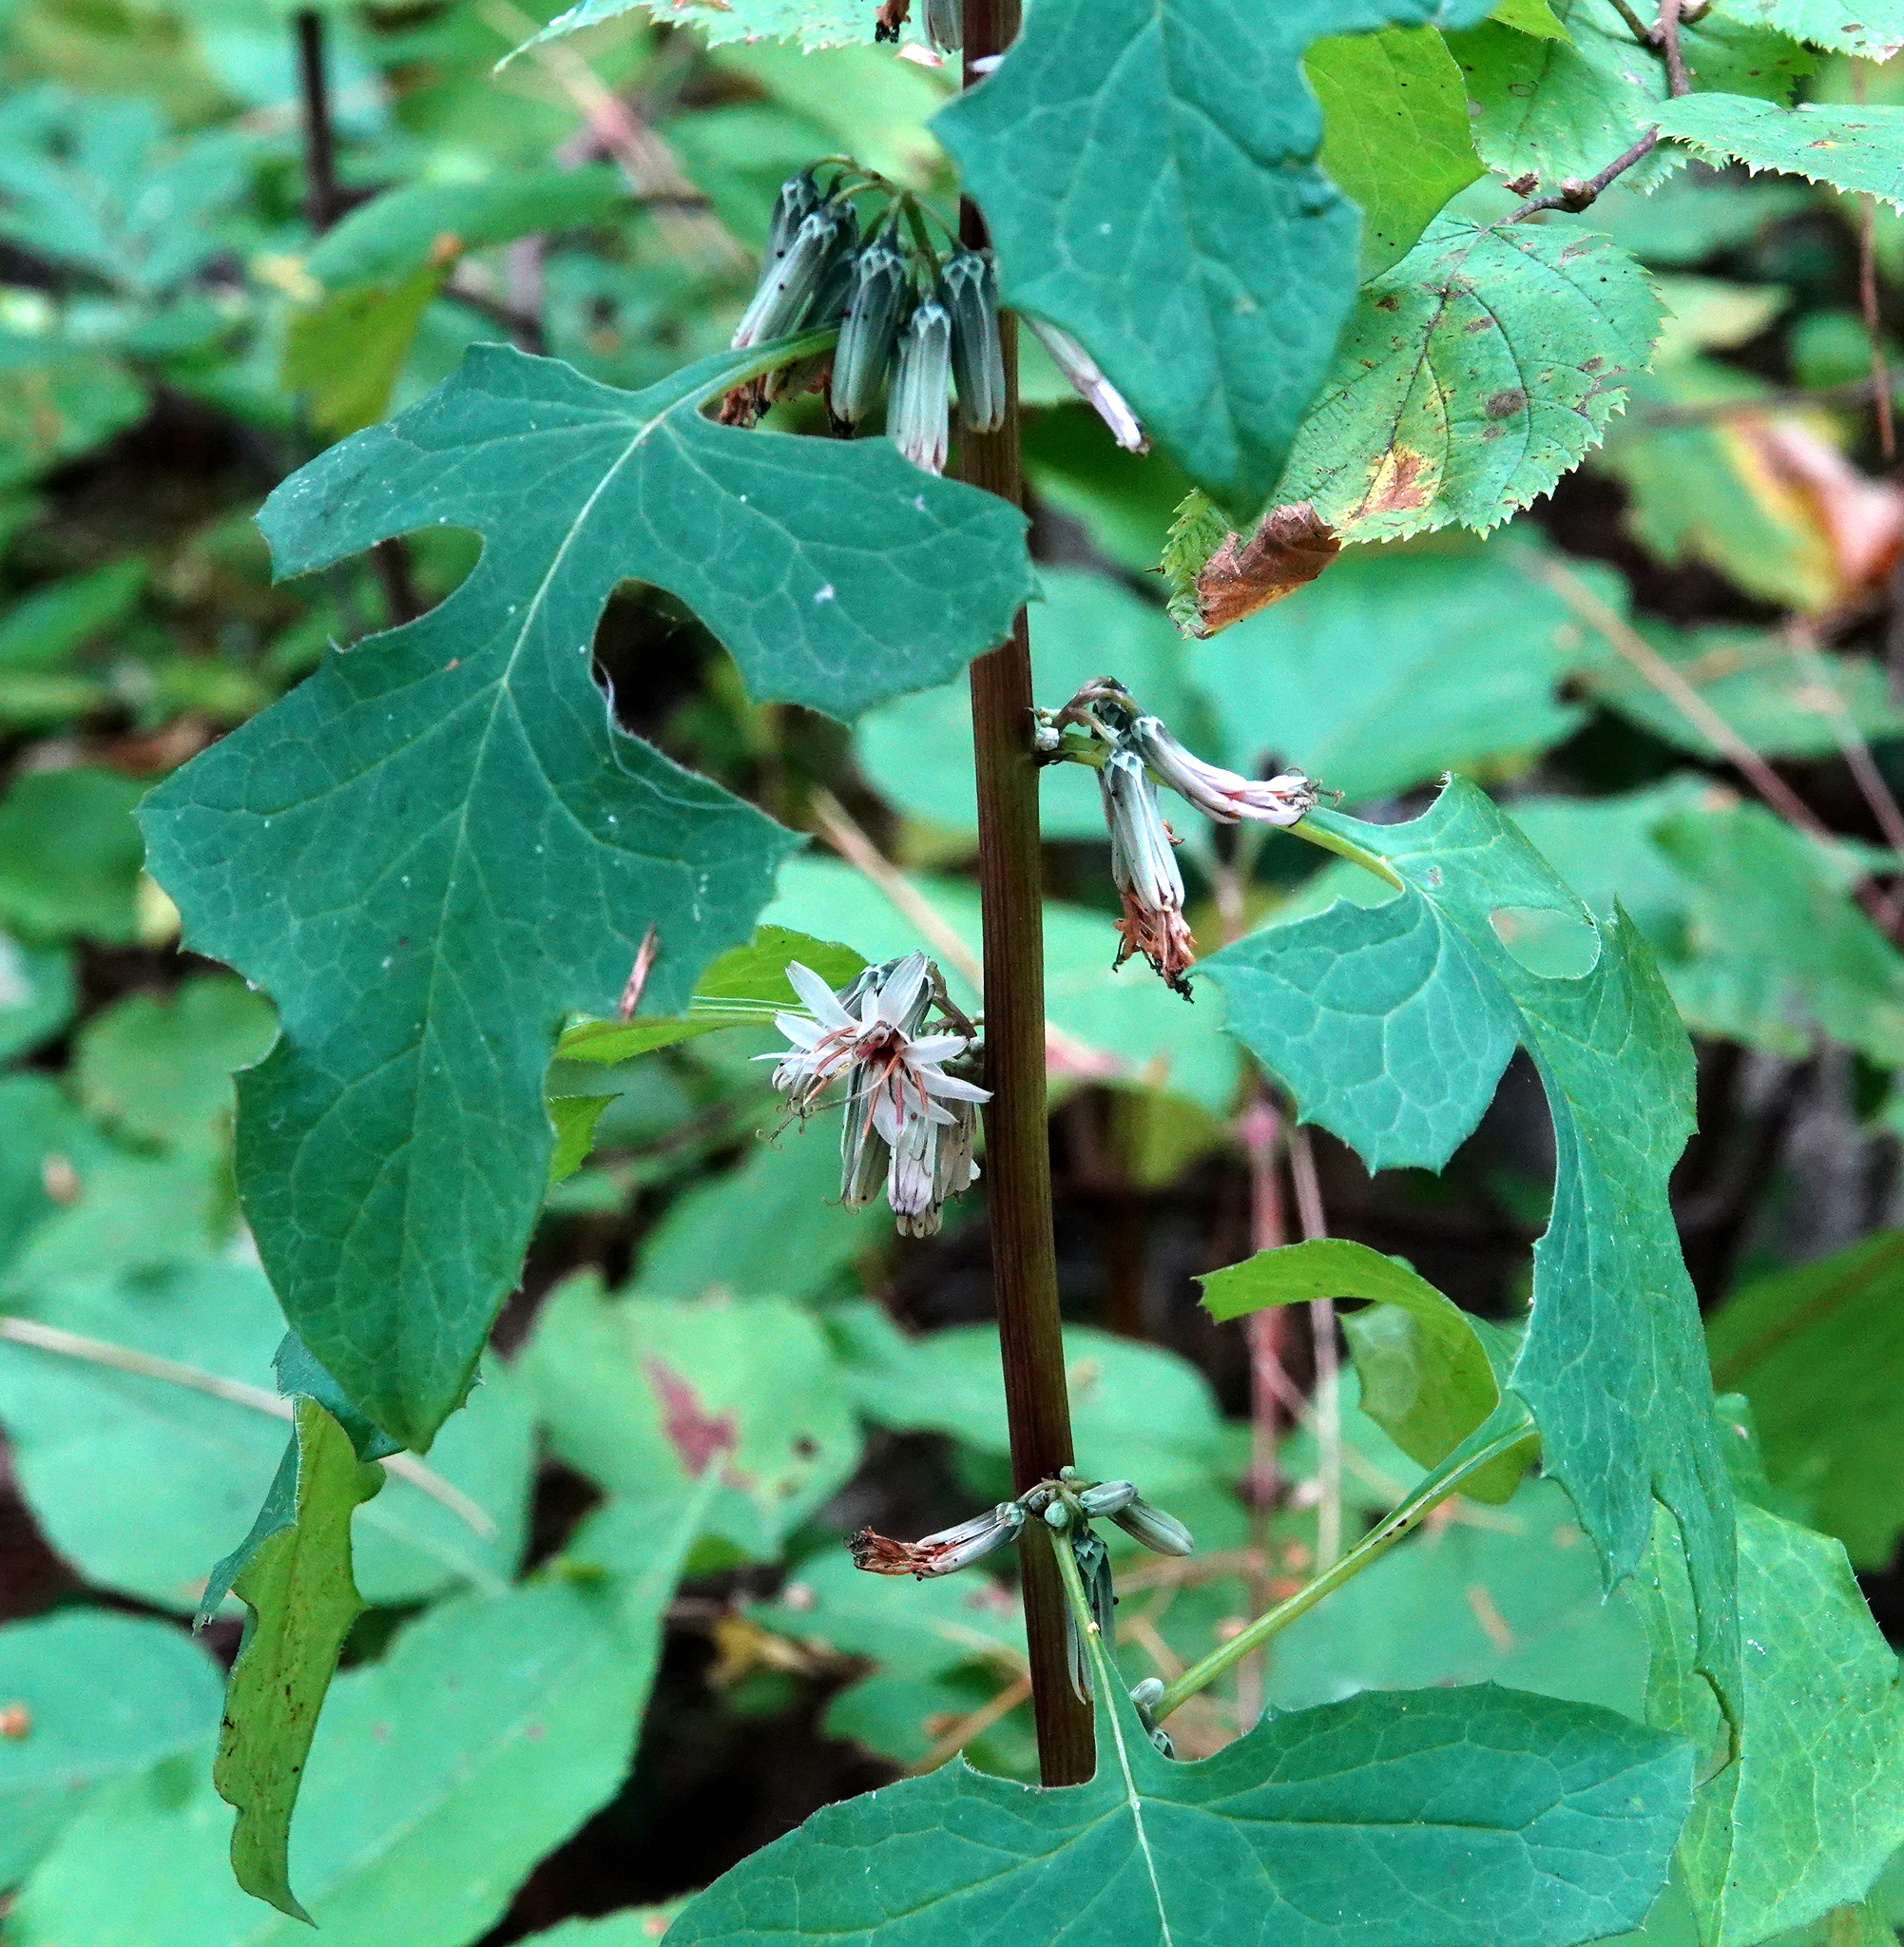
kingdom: Plantae
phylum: Tracheophyta
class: Magnoliopsida
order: Asterales
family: Asteraceae
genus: Nabalus
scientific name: Nabalus albus
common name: White rattlesnakeroot
